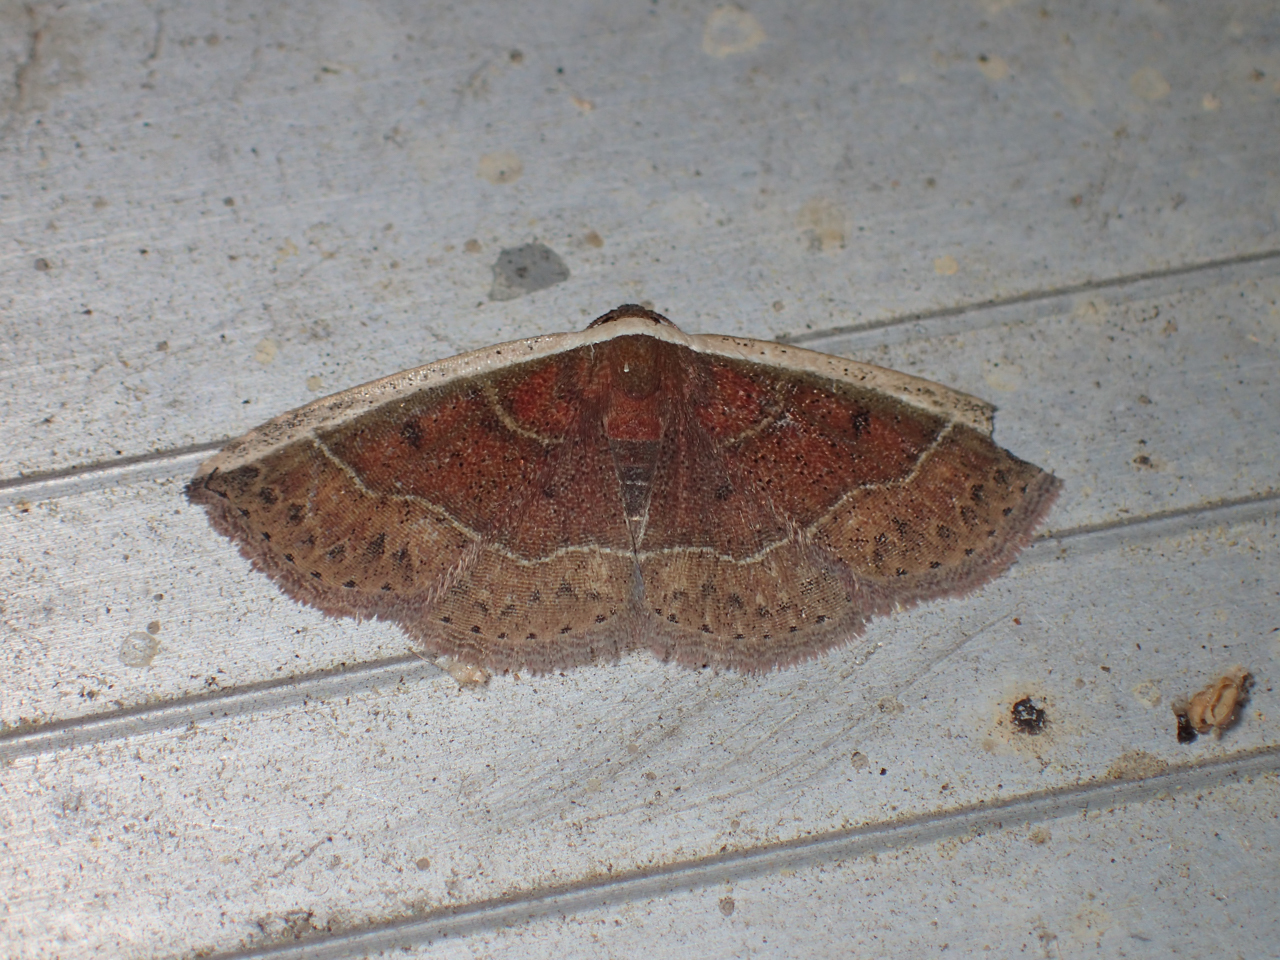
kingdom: Animalia
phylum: Arthropoda
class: Insecta
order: Lepidoptera
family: Noctuidae
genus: Ozarba
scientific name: Ozarba albocostaliata
